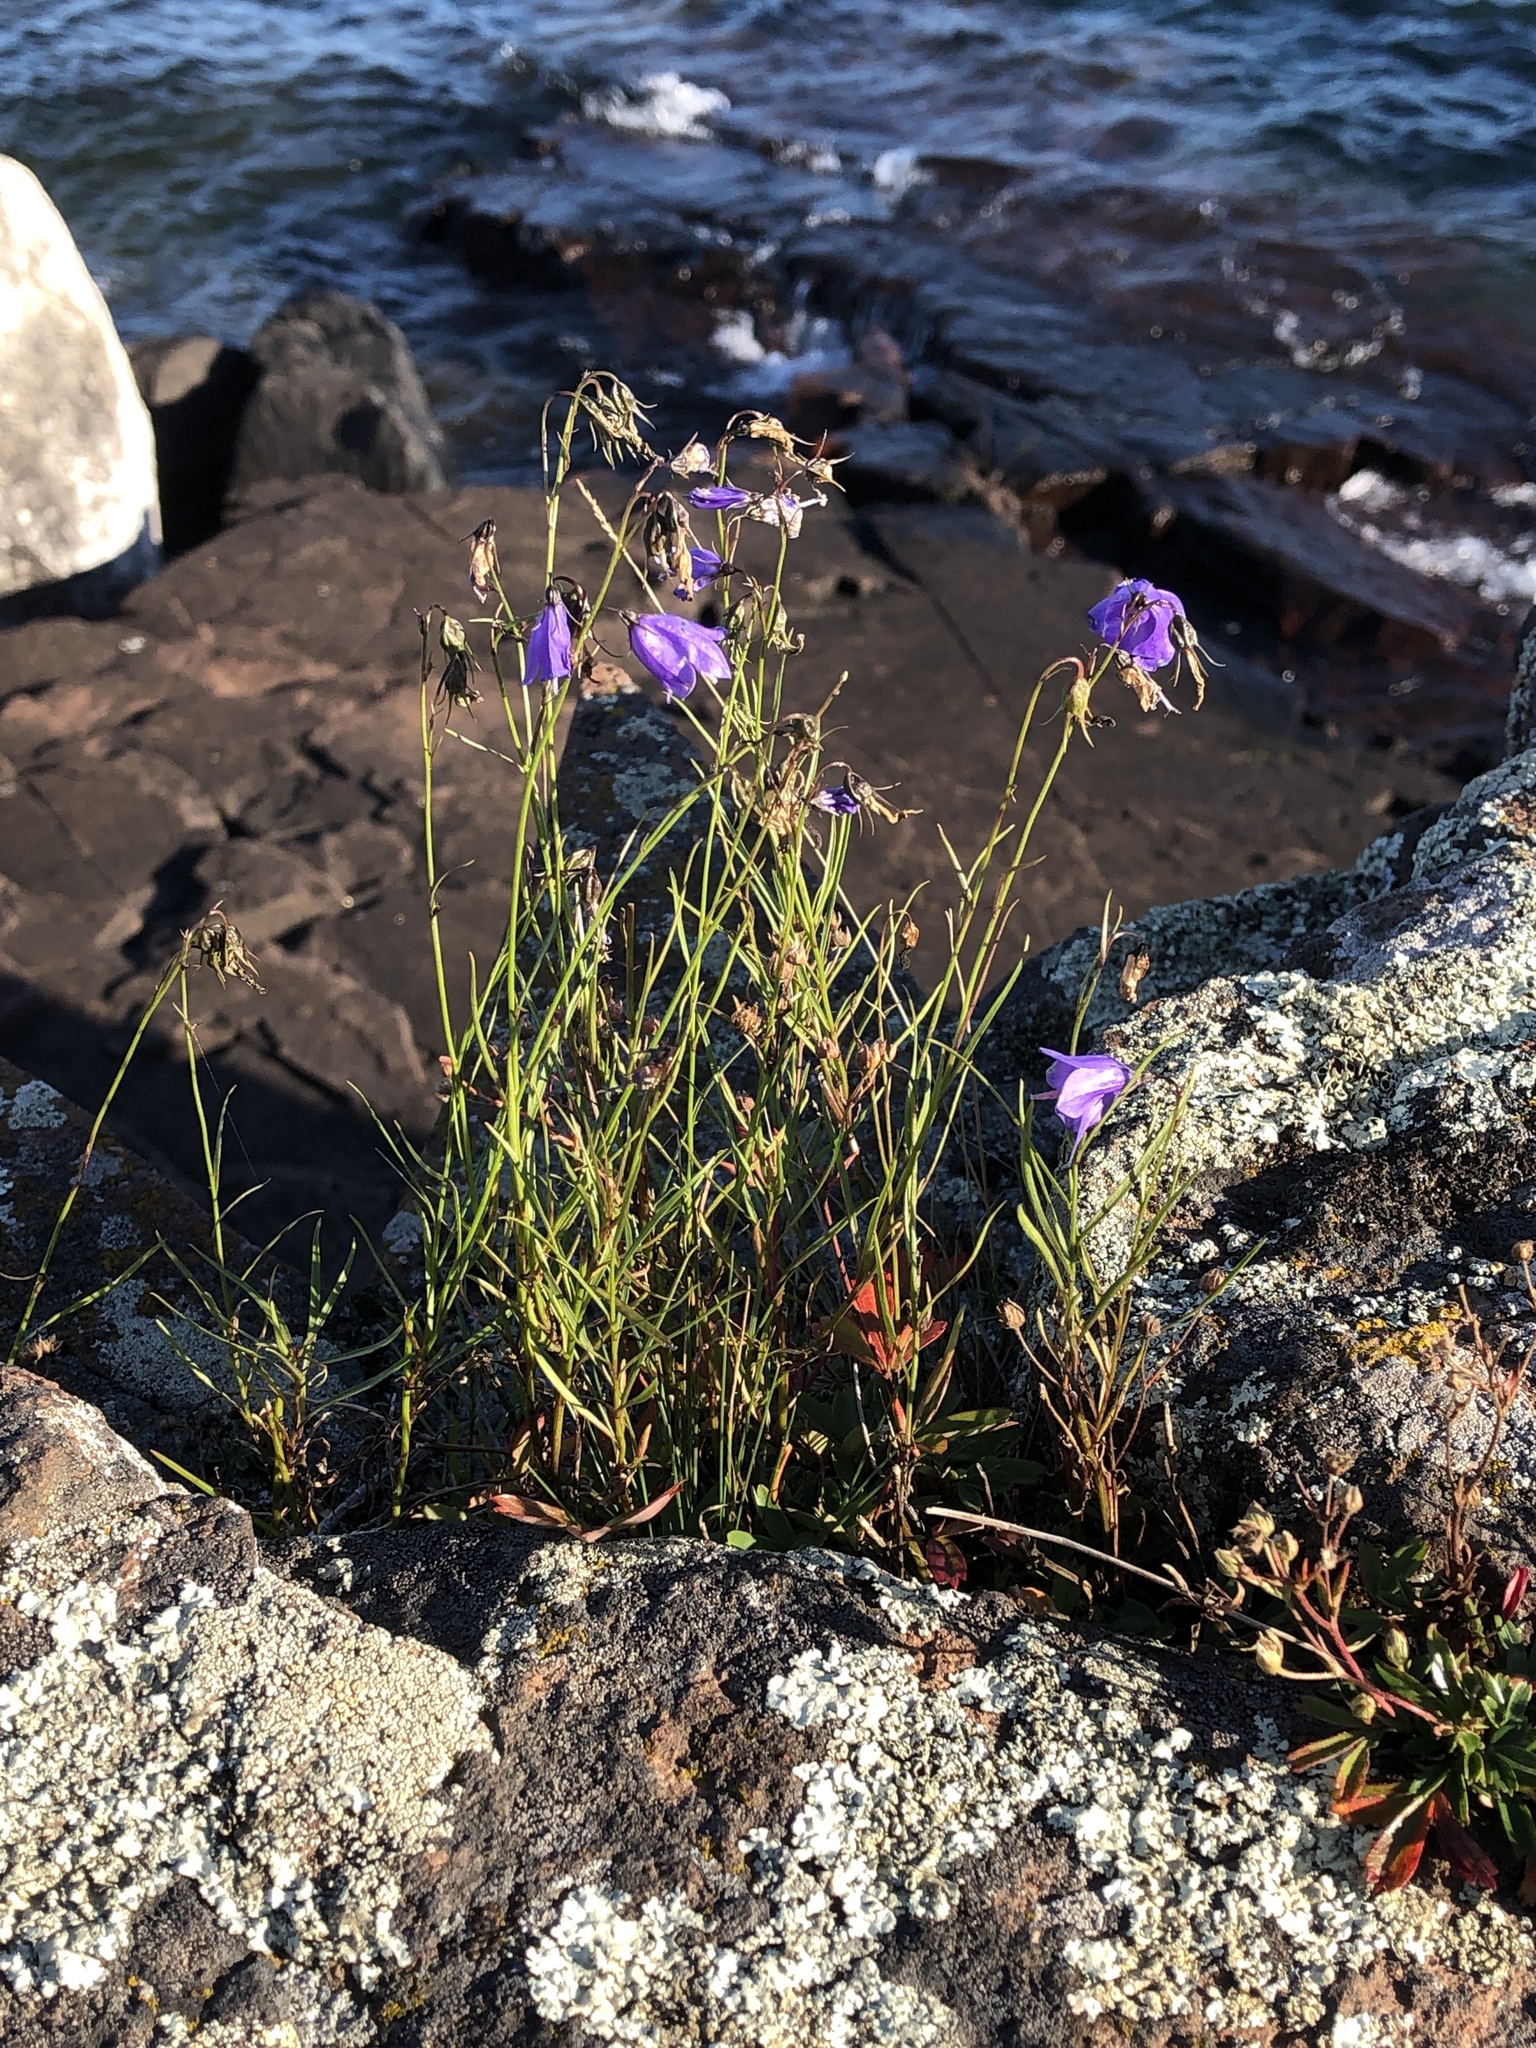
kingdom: Plantae
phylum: Tracheophyta
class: Magnoliopsida
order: Asterales
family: Campanulaceae
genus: Campanula
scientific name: Campanula intercedens
